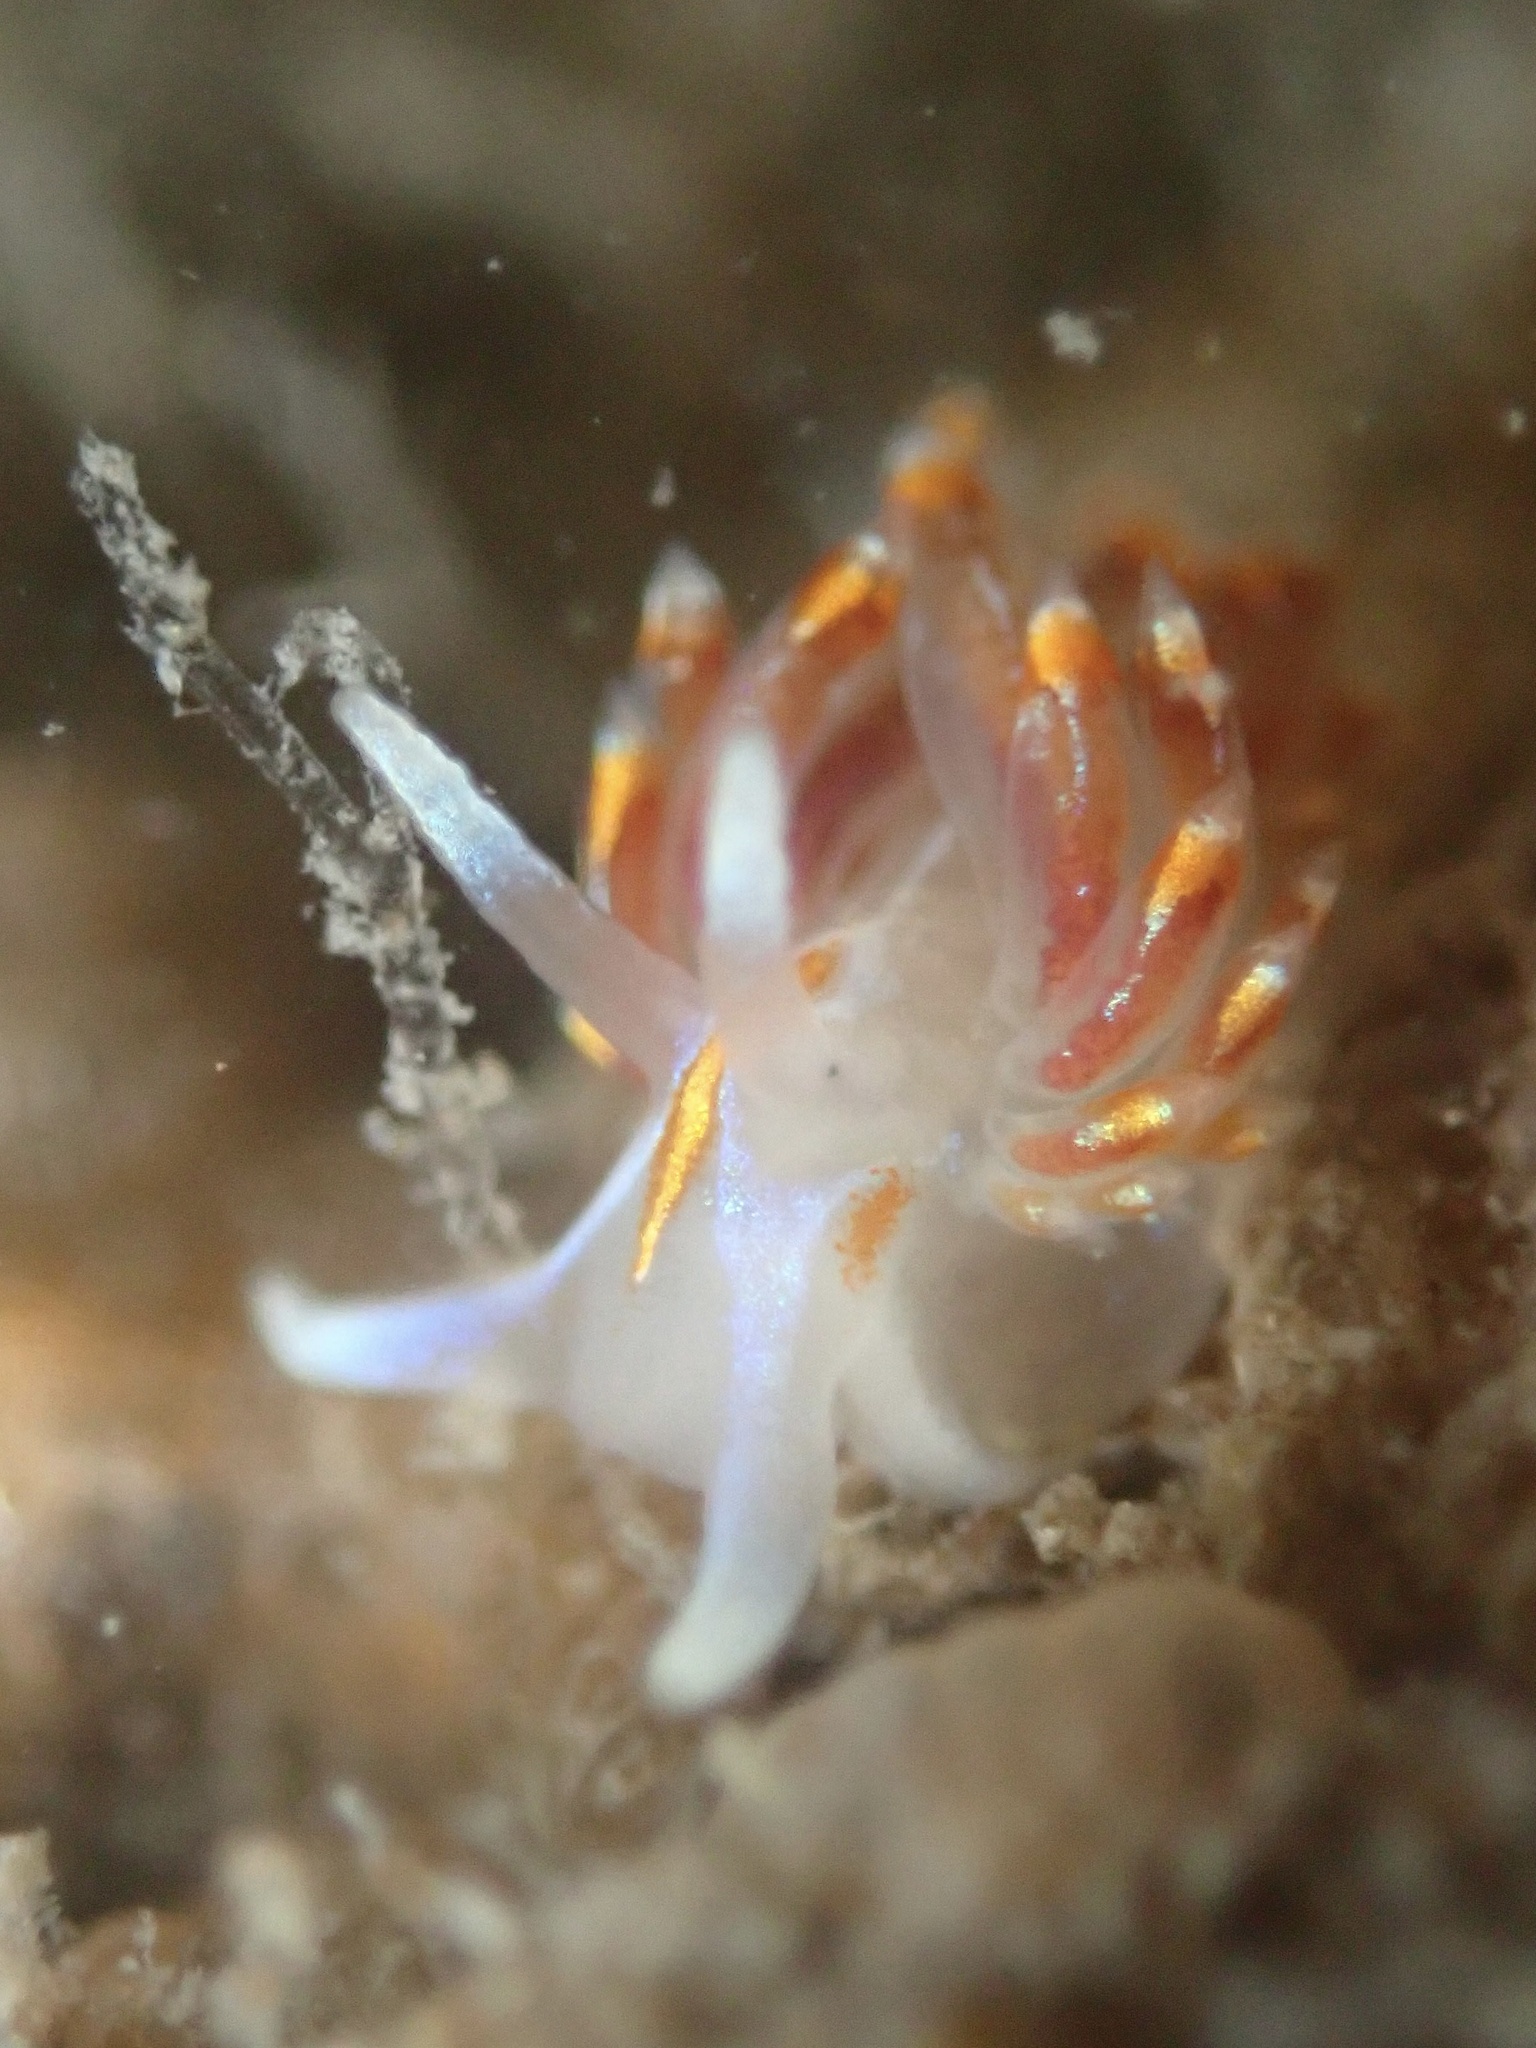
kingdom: Animalia
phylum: Mollusca
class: Gastropoda
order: Nudibranchia
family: Myrrhinidae
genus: Hermissenda
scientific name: Hermissenda opalescens
